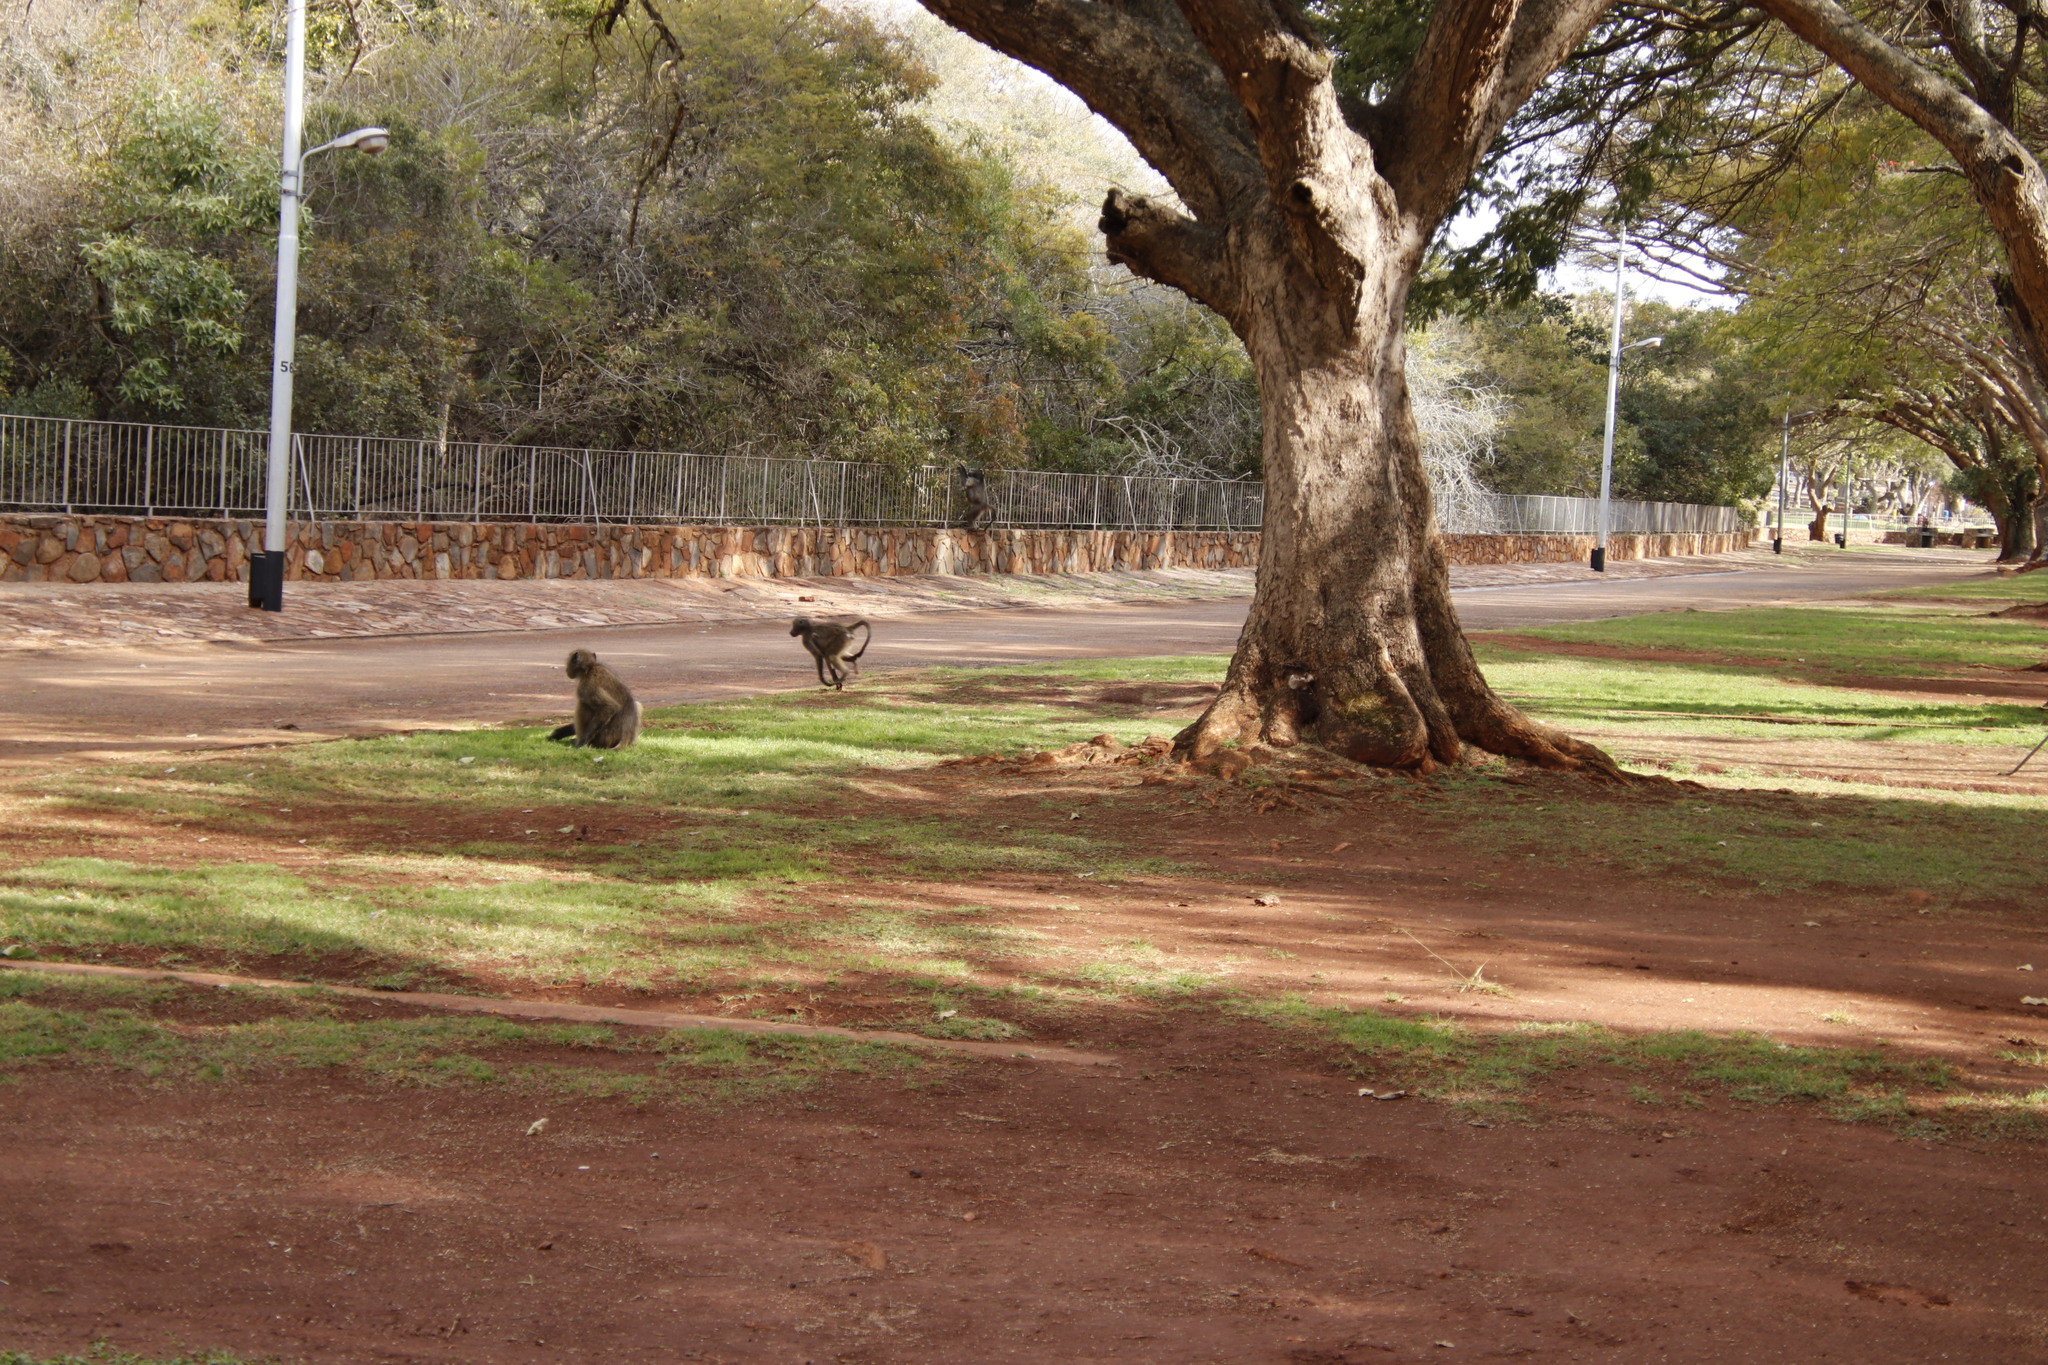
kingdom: Animalia
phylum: Chordata
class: Mammalia
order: Primates
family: Cercopithecidae
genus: Papio
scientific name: Papio ursinus
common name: Chacma baboon
